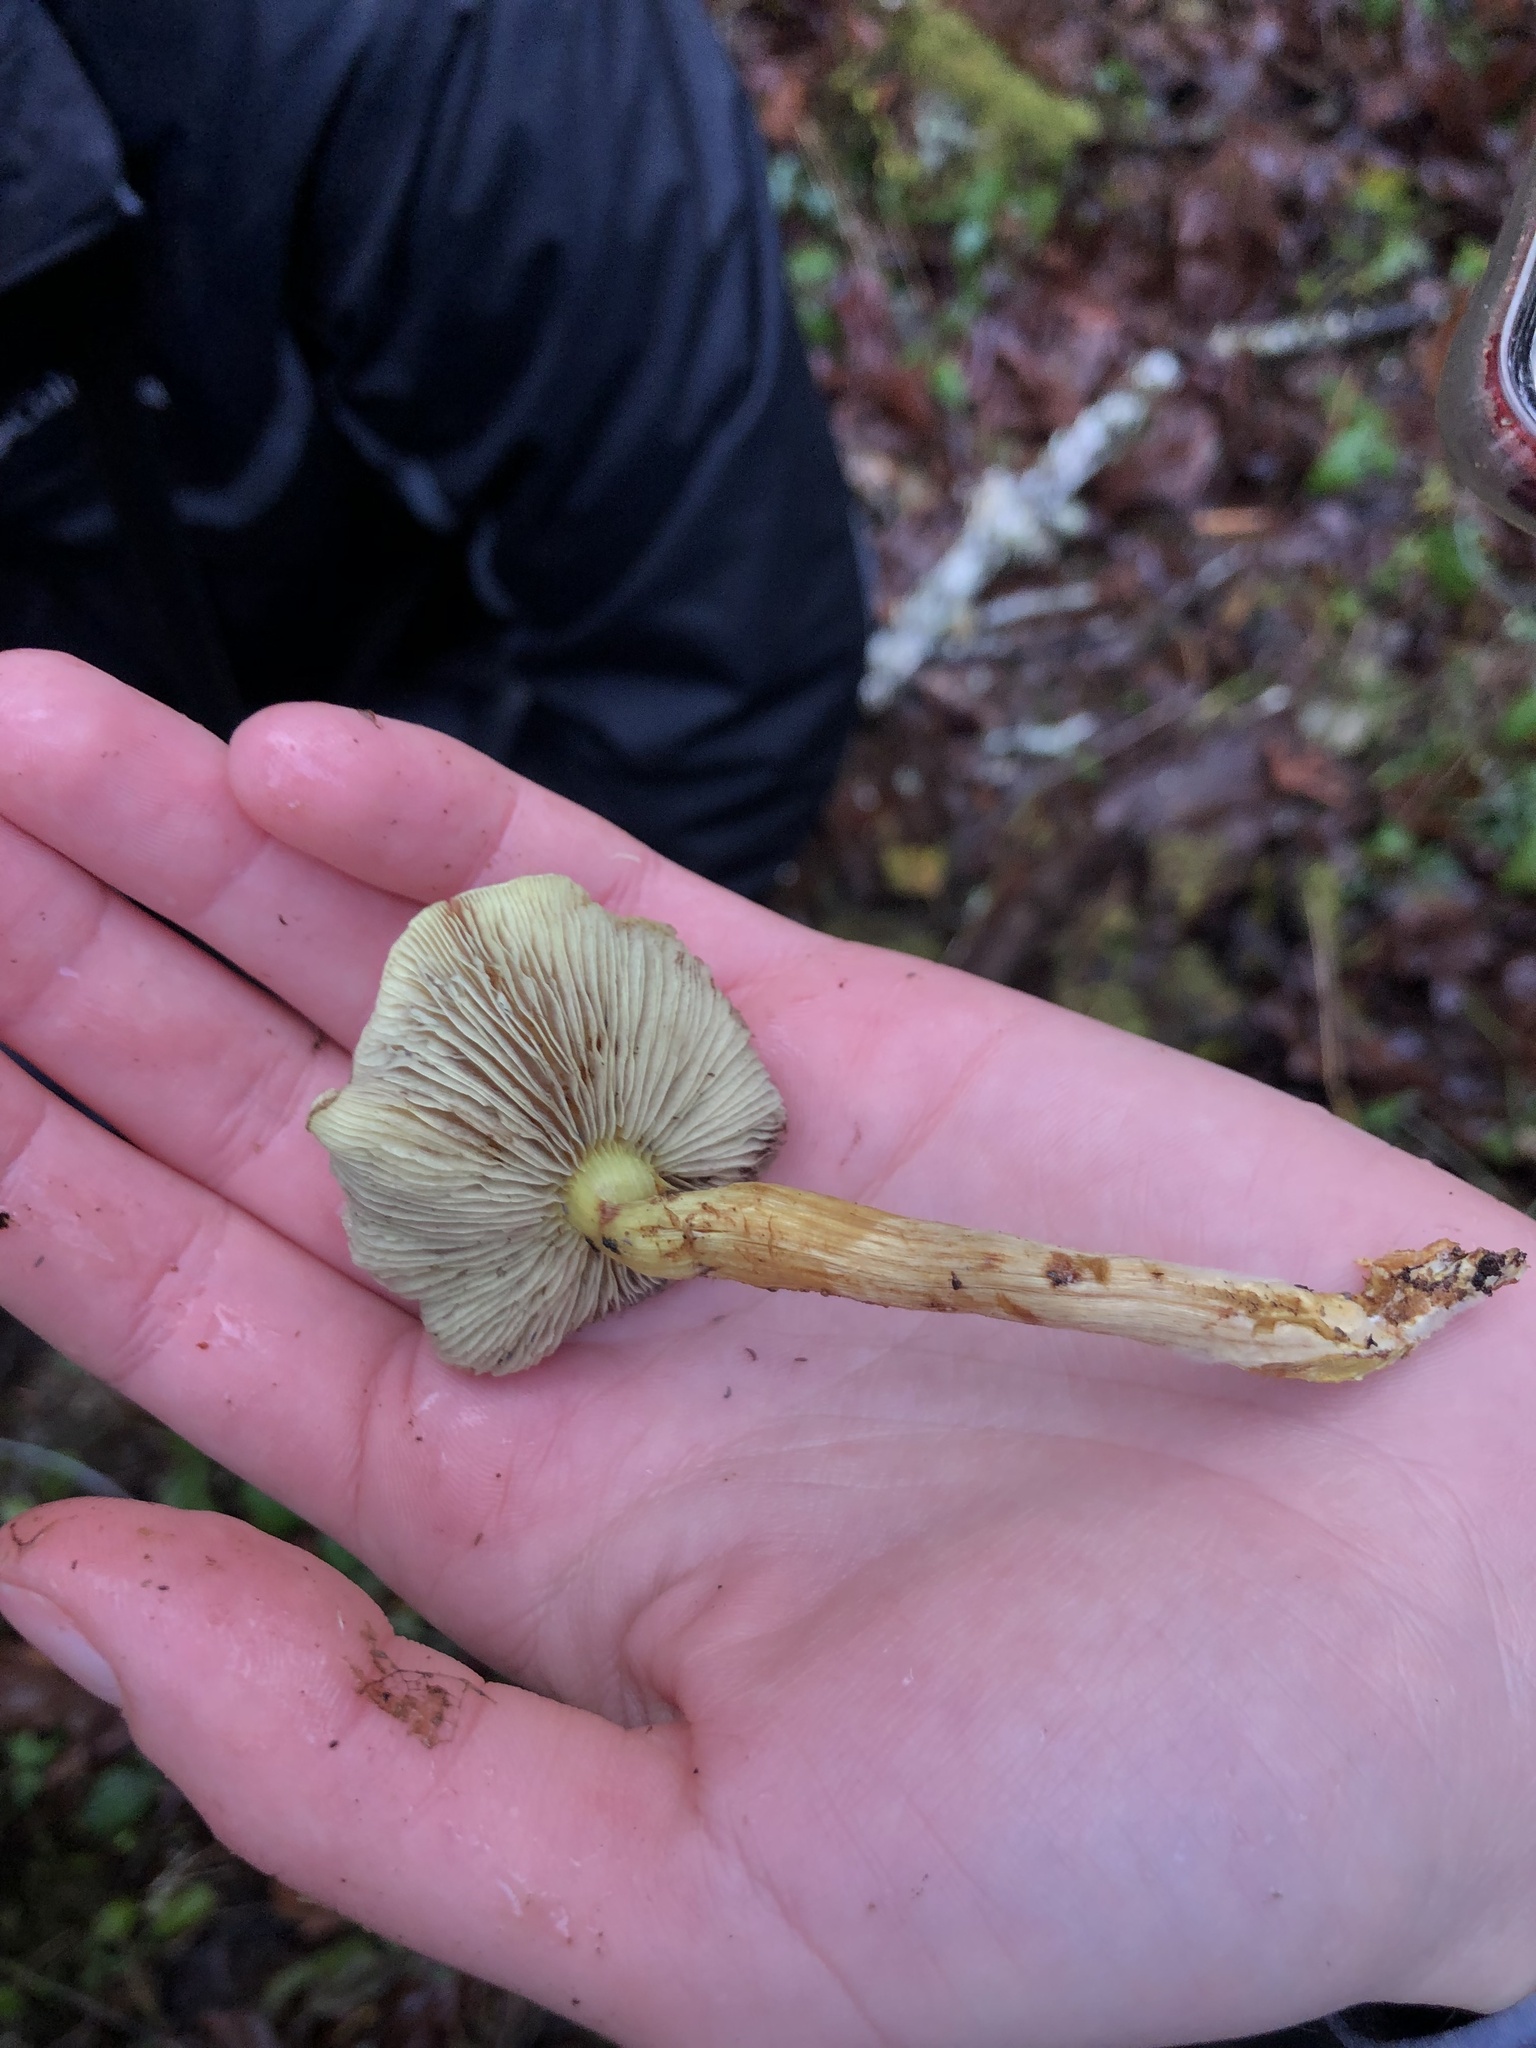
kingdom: Fungi
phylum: Basidiomycota
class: Agaricomycetes
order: Agaricales
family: Strophariaceae
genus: Hypholoma
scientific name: Hypholoma fasciculare
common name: Sulphur tuft
